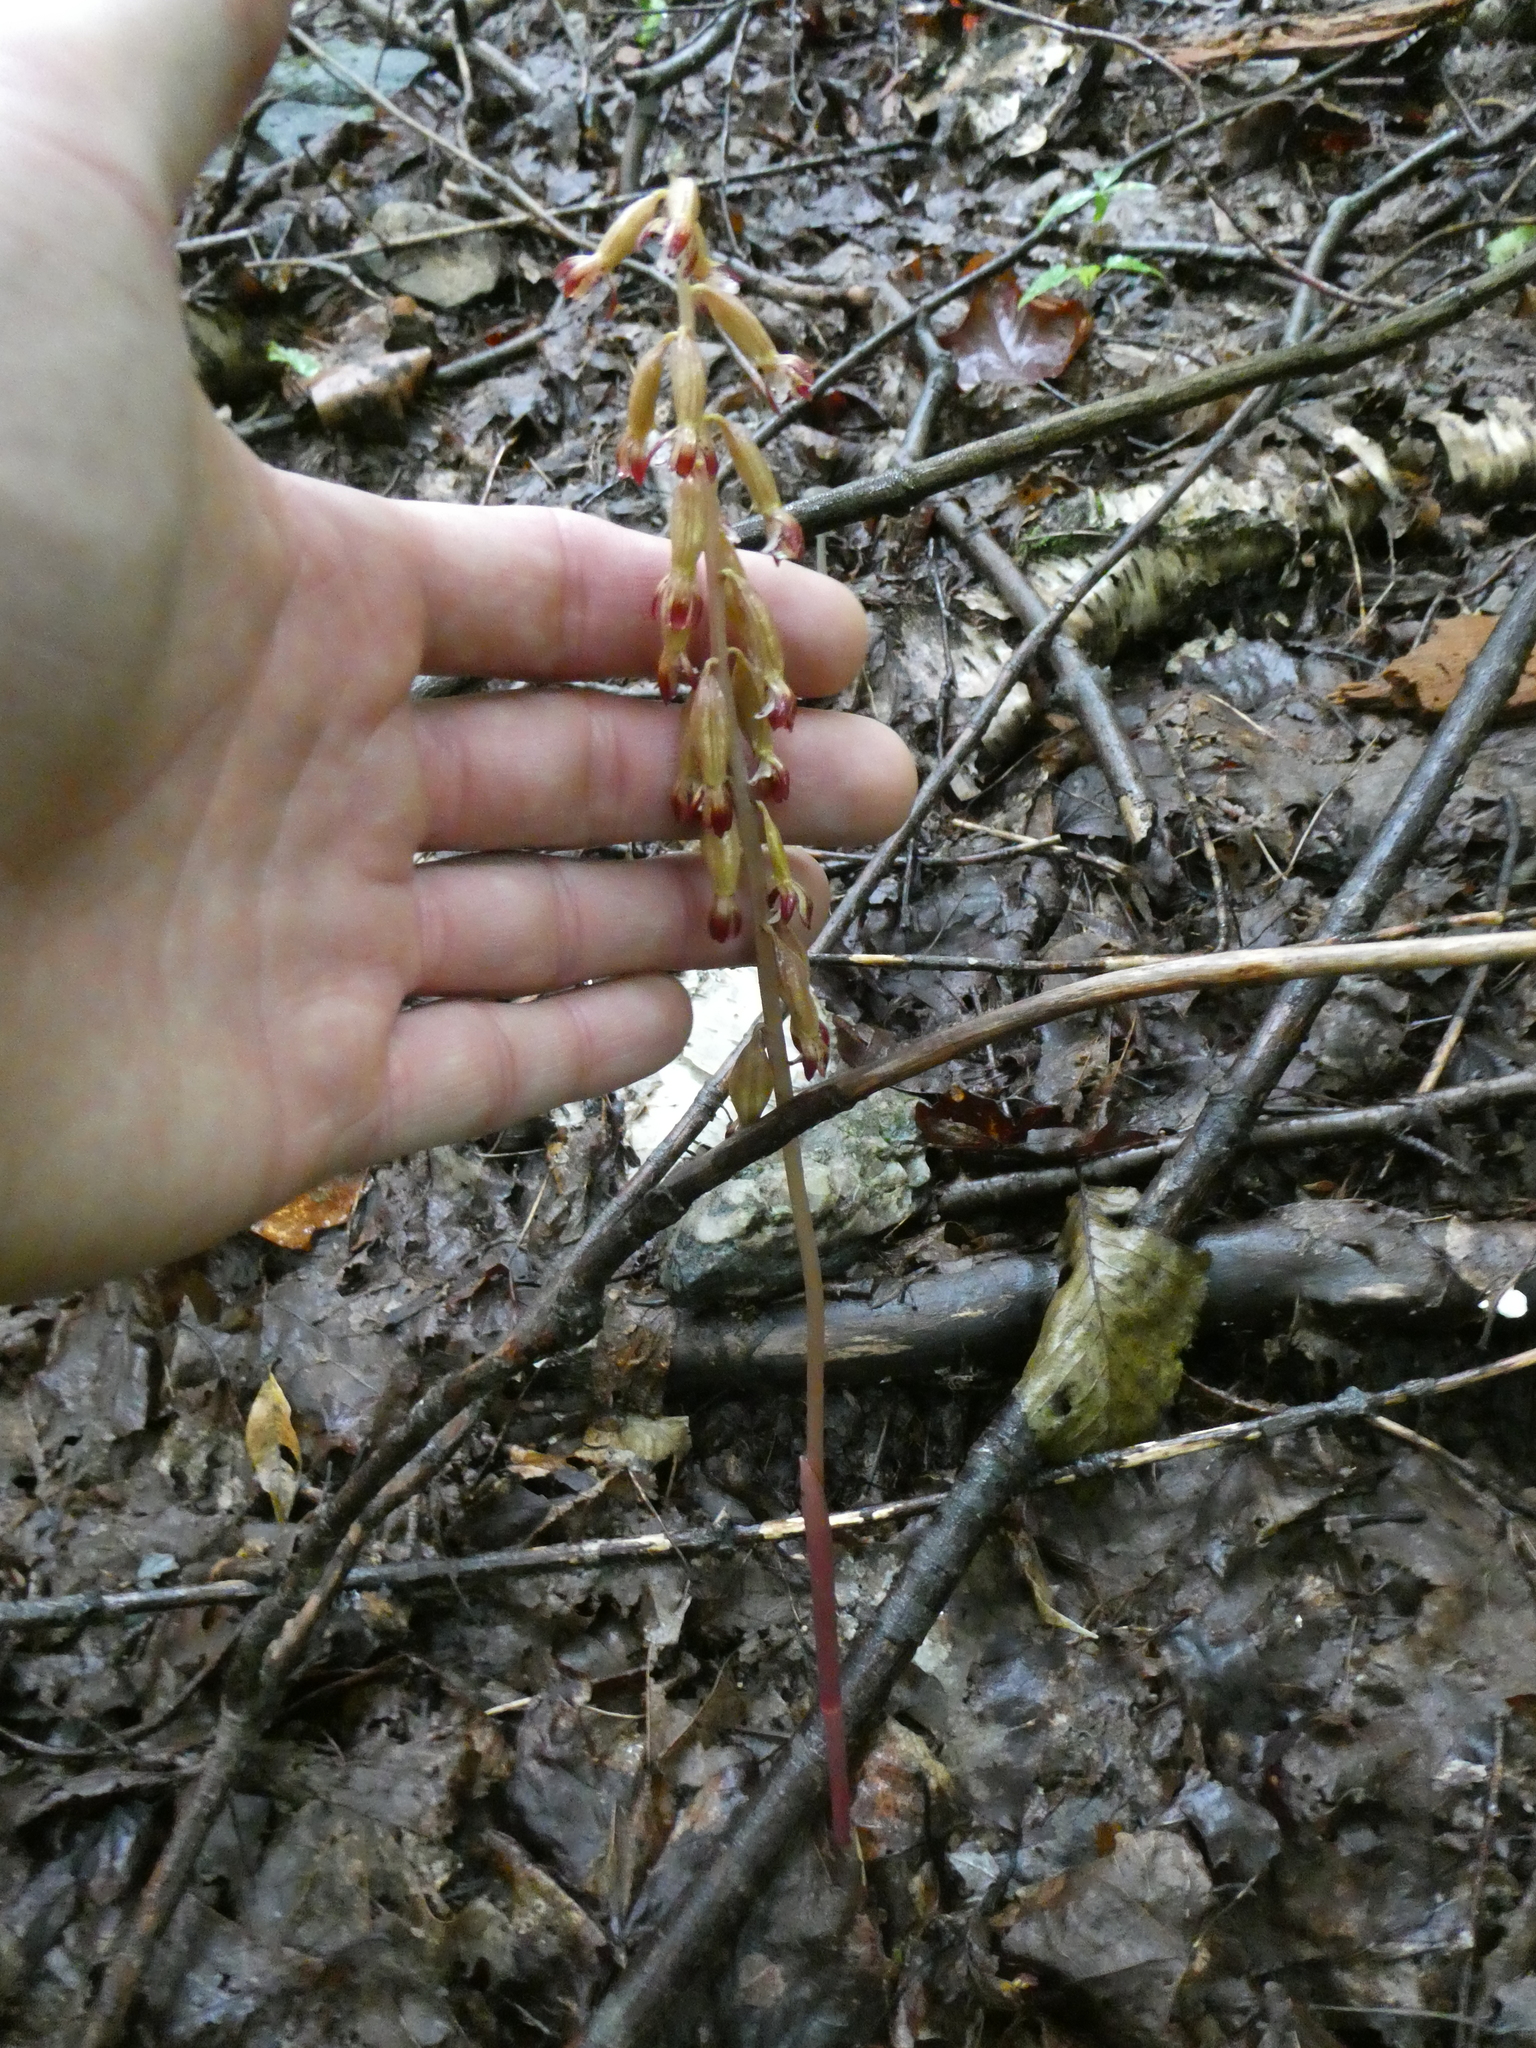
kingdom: Plantae
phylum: Tracheophyta
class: Liliopsida
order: Asparagales
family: Orchidaceae
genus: Corallorhiza
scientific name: Corallorhiza maculata
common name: Spotted coralroot
